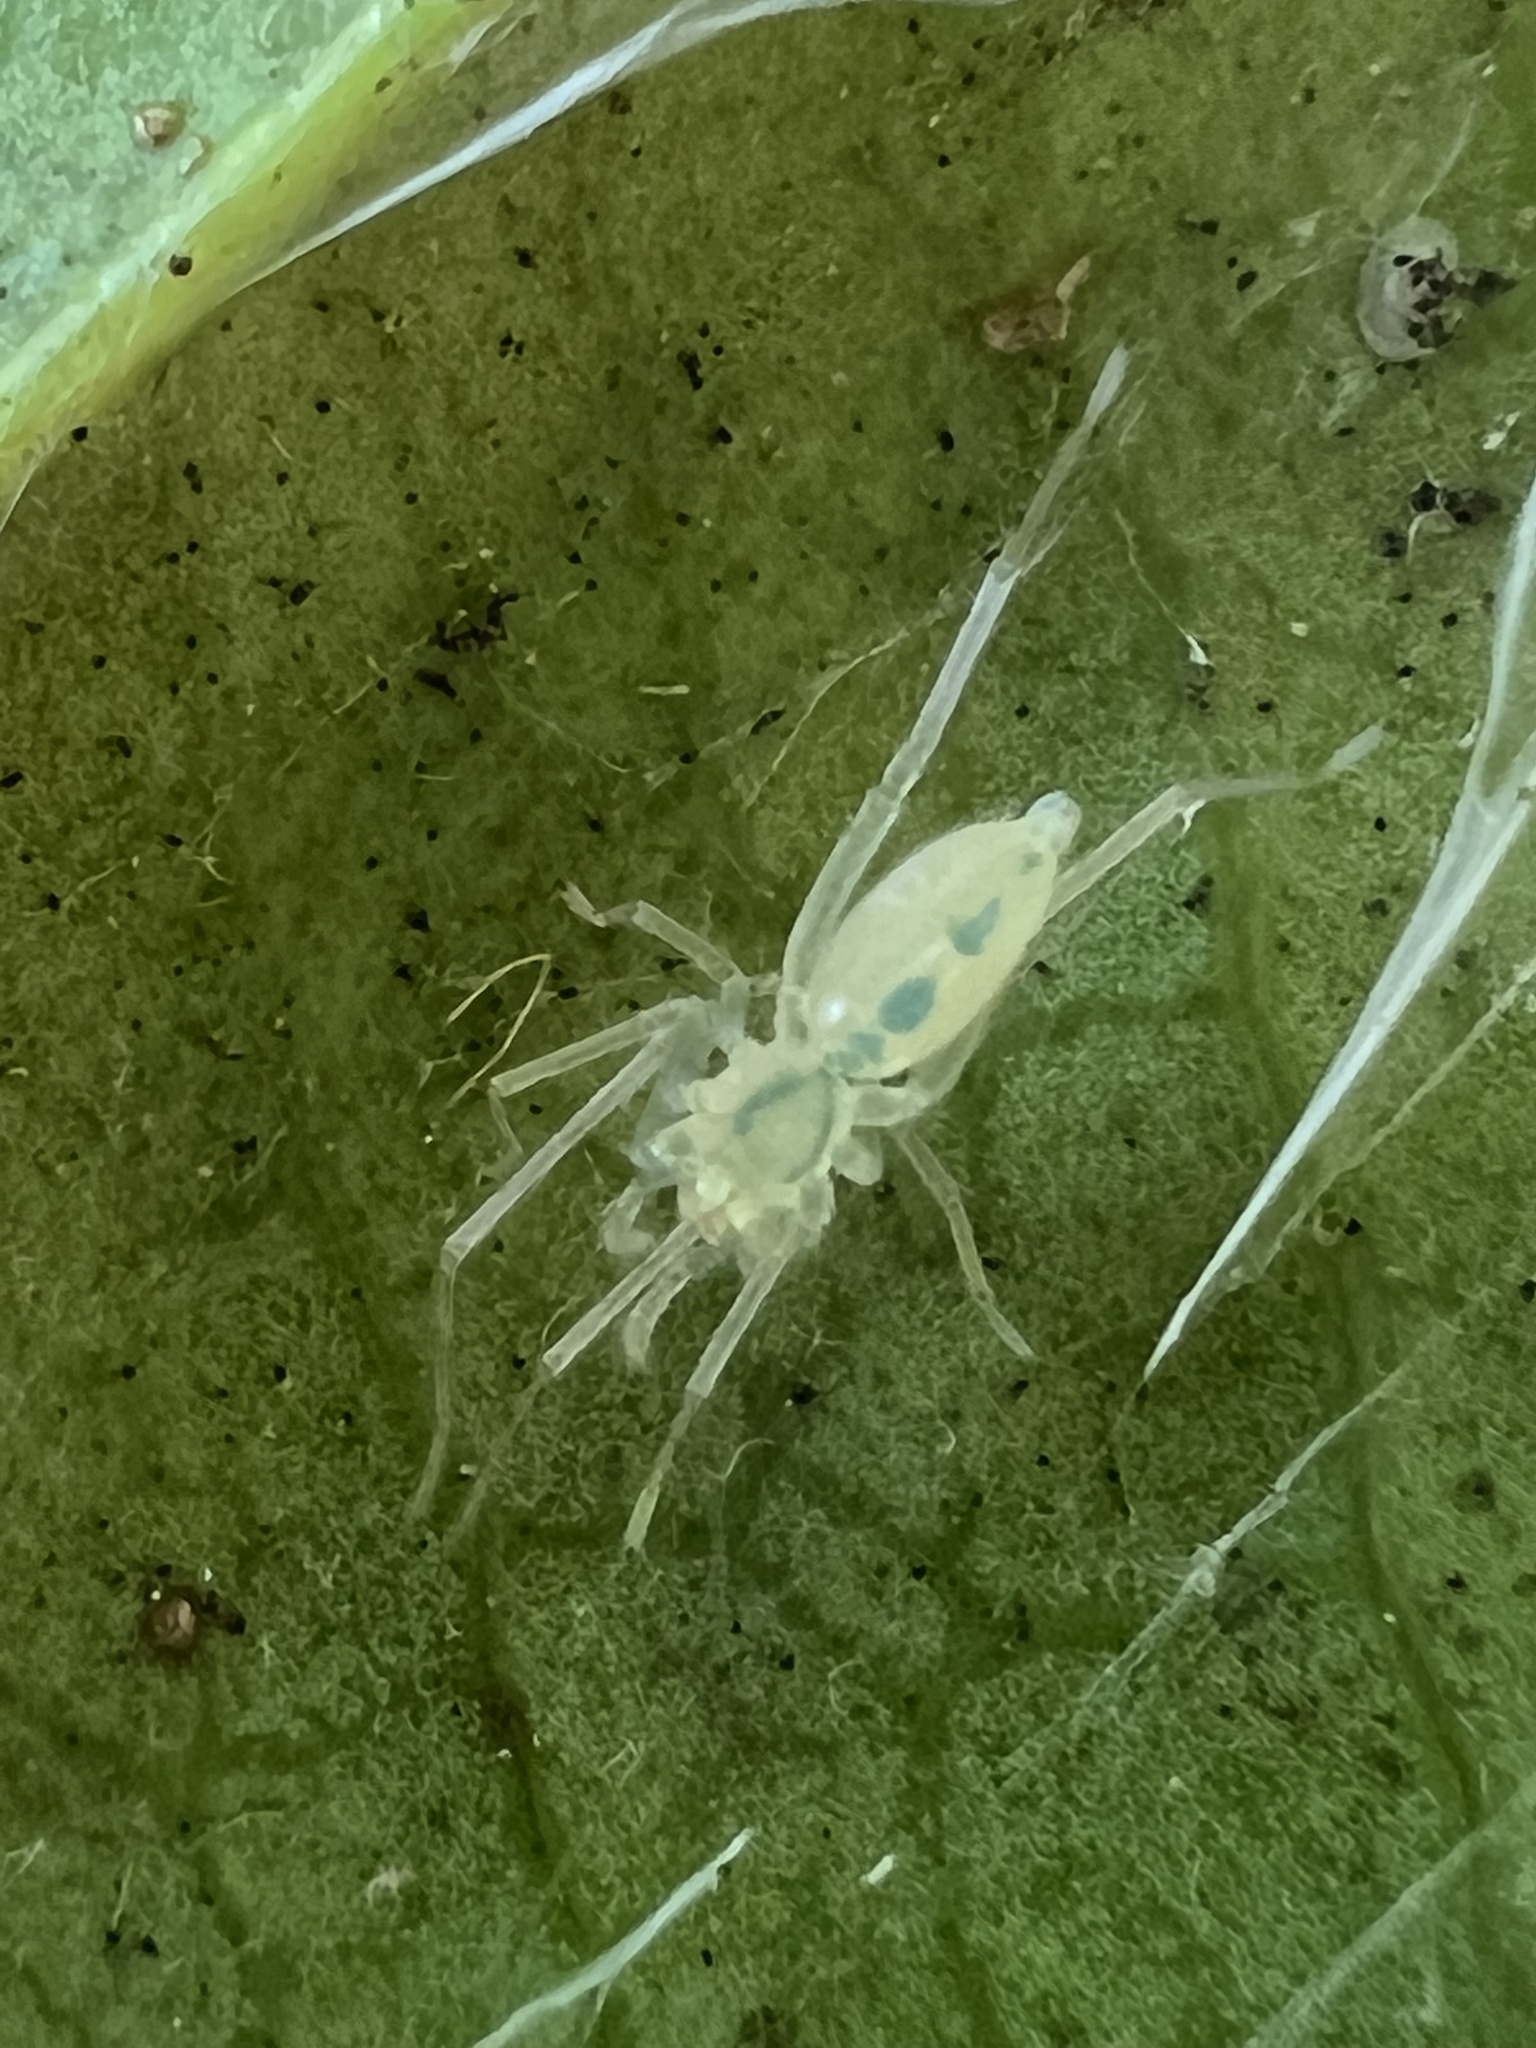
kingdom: Animalia
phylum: Arthropoda
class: Arachnida
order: Araneae
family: Anyphaenidae
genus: Wulfila
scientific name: Wulfila albens
